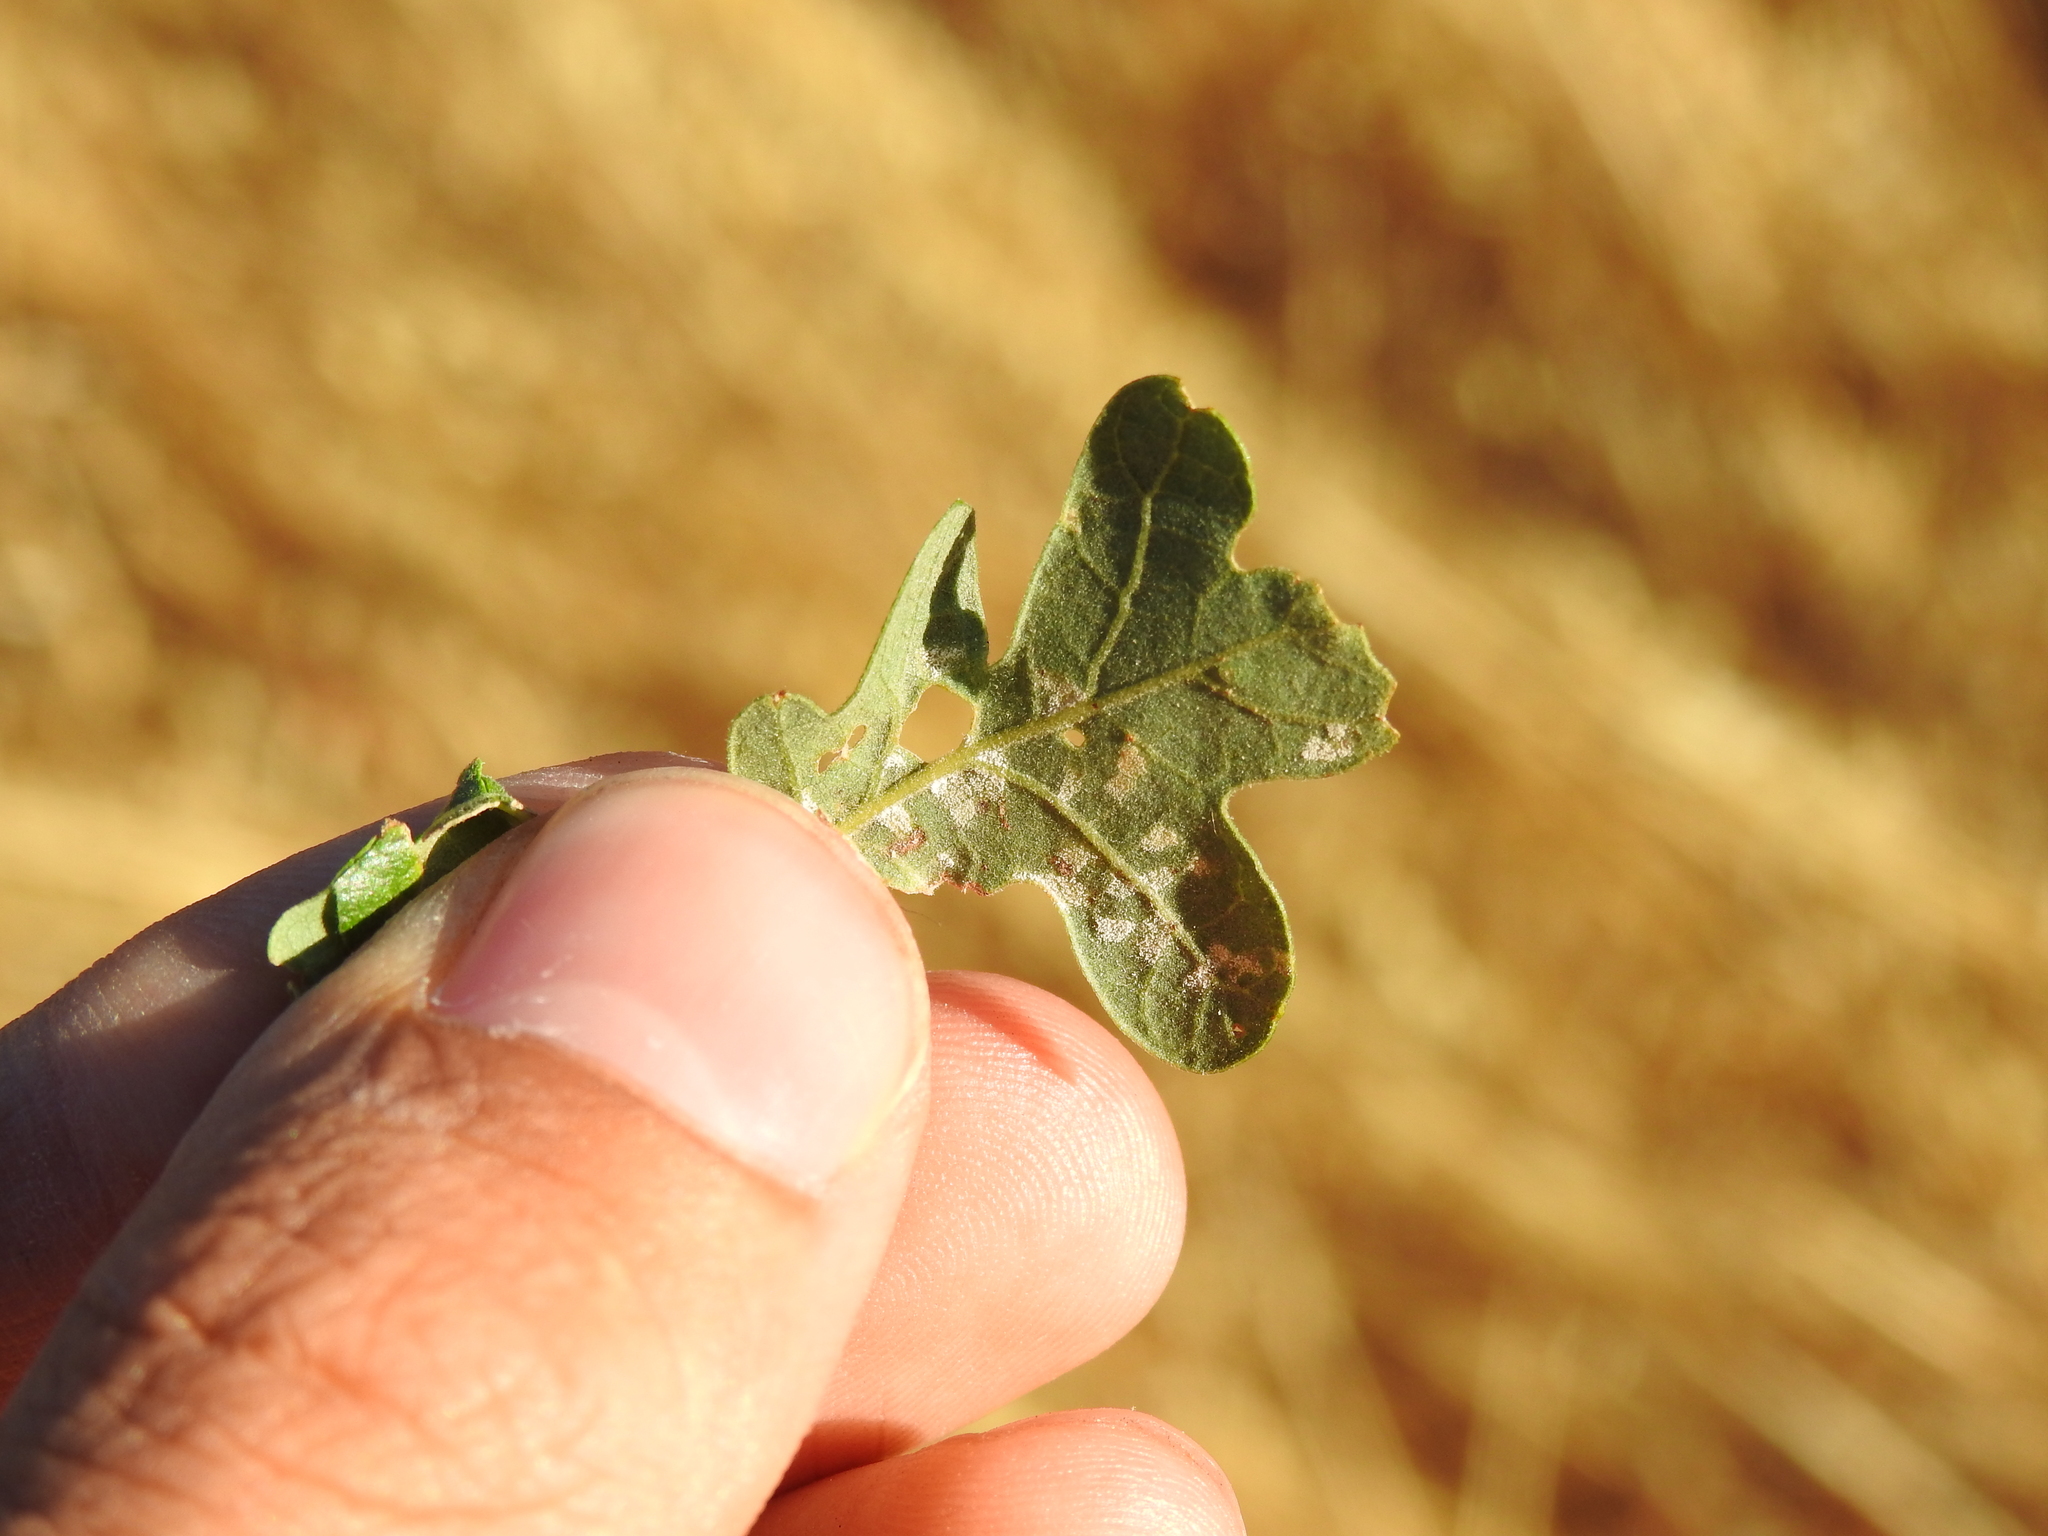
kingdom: Fungi
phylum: Basidiomycota
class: Exobasidiomycetes
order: Microstromatales
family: Microstromataceae
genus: Microstroma
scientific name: Microstroma album
